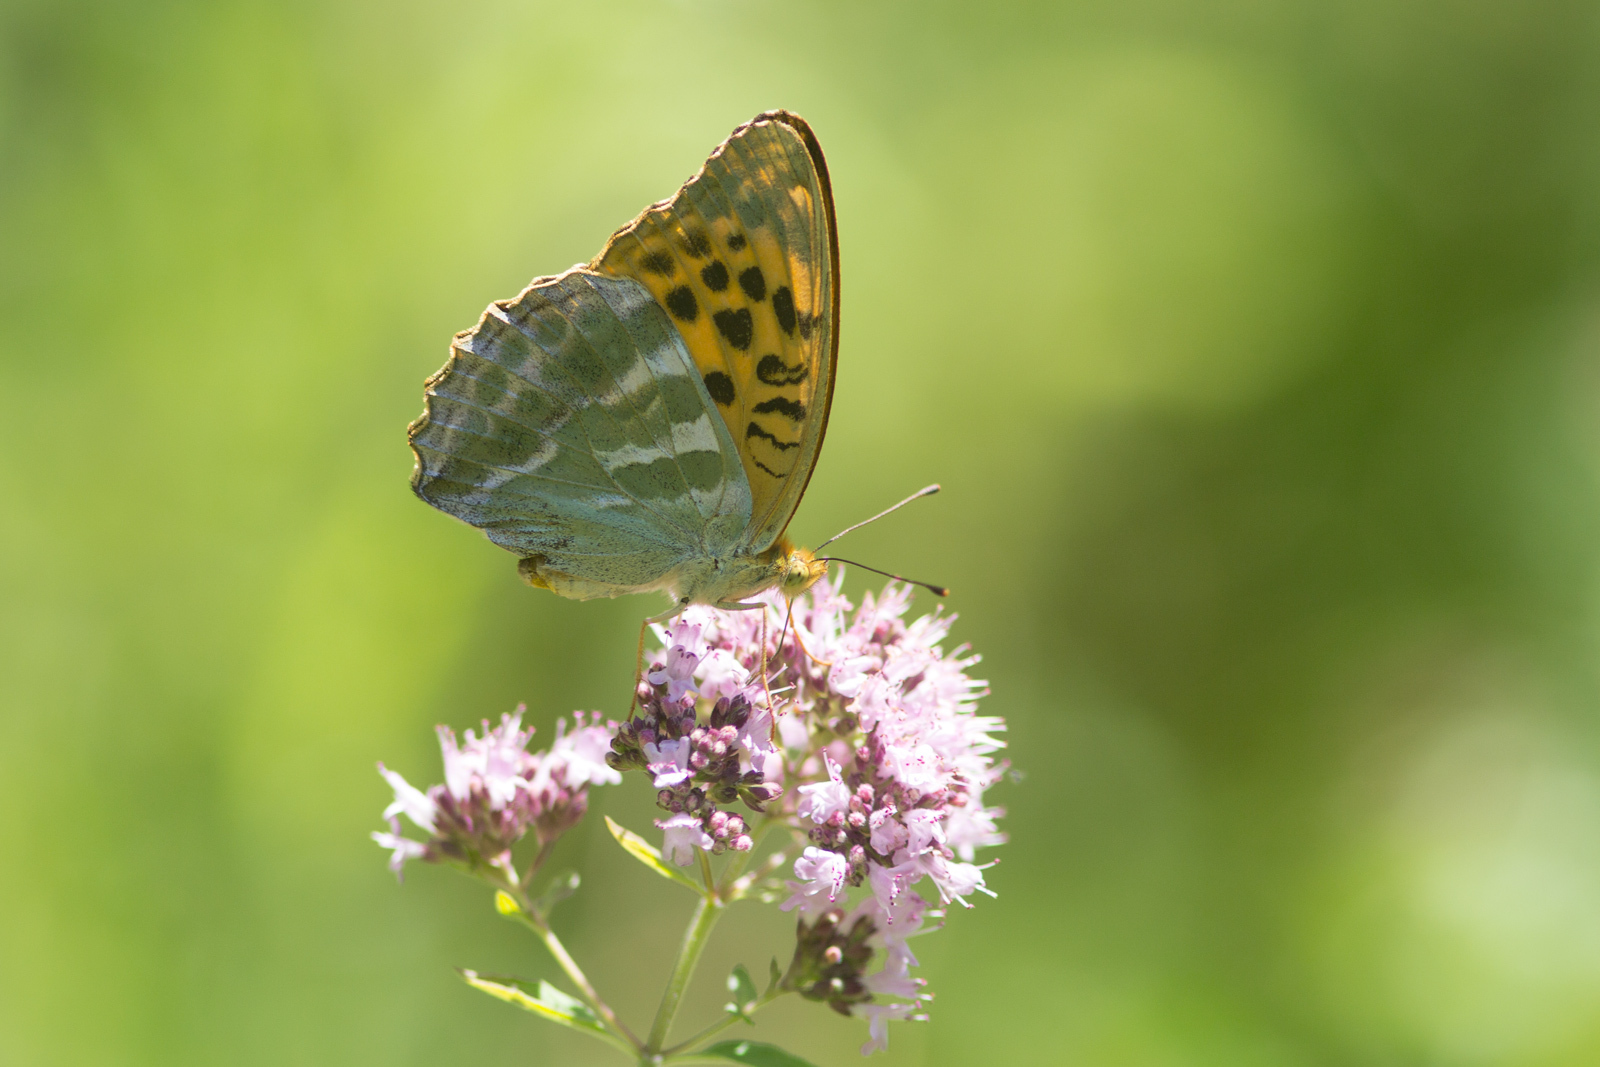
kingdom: Animalia
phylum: Arthropoda
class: Insecta
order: Lepidoptera
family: Nymphalidae
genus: Argynnis
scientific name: Argynnis paphia
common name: Silver-washed fritillary
